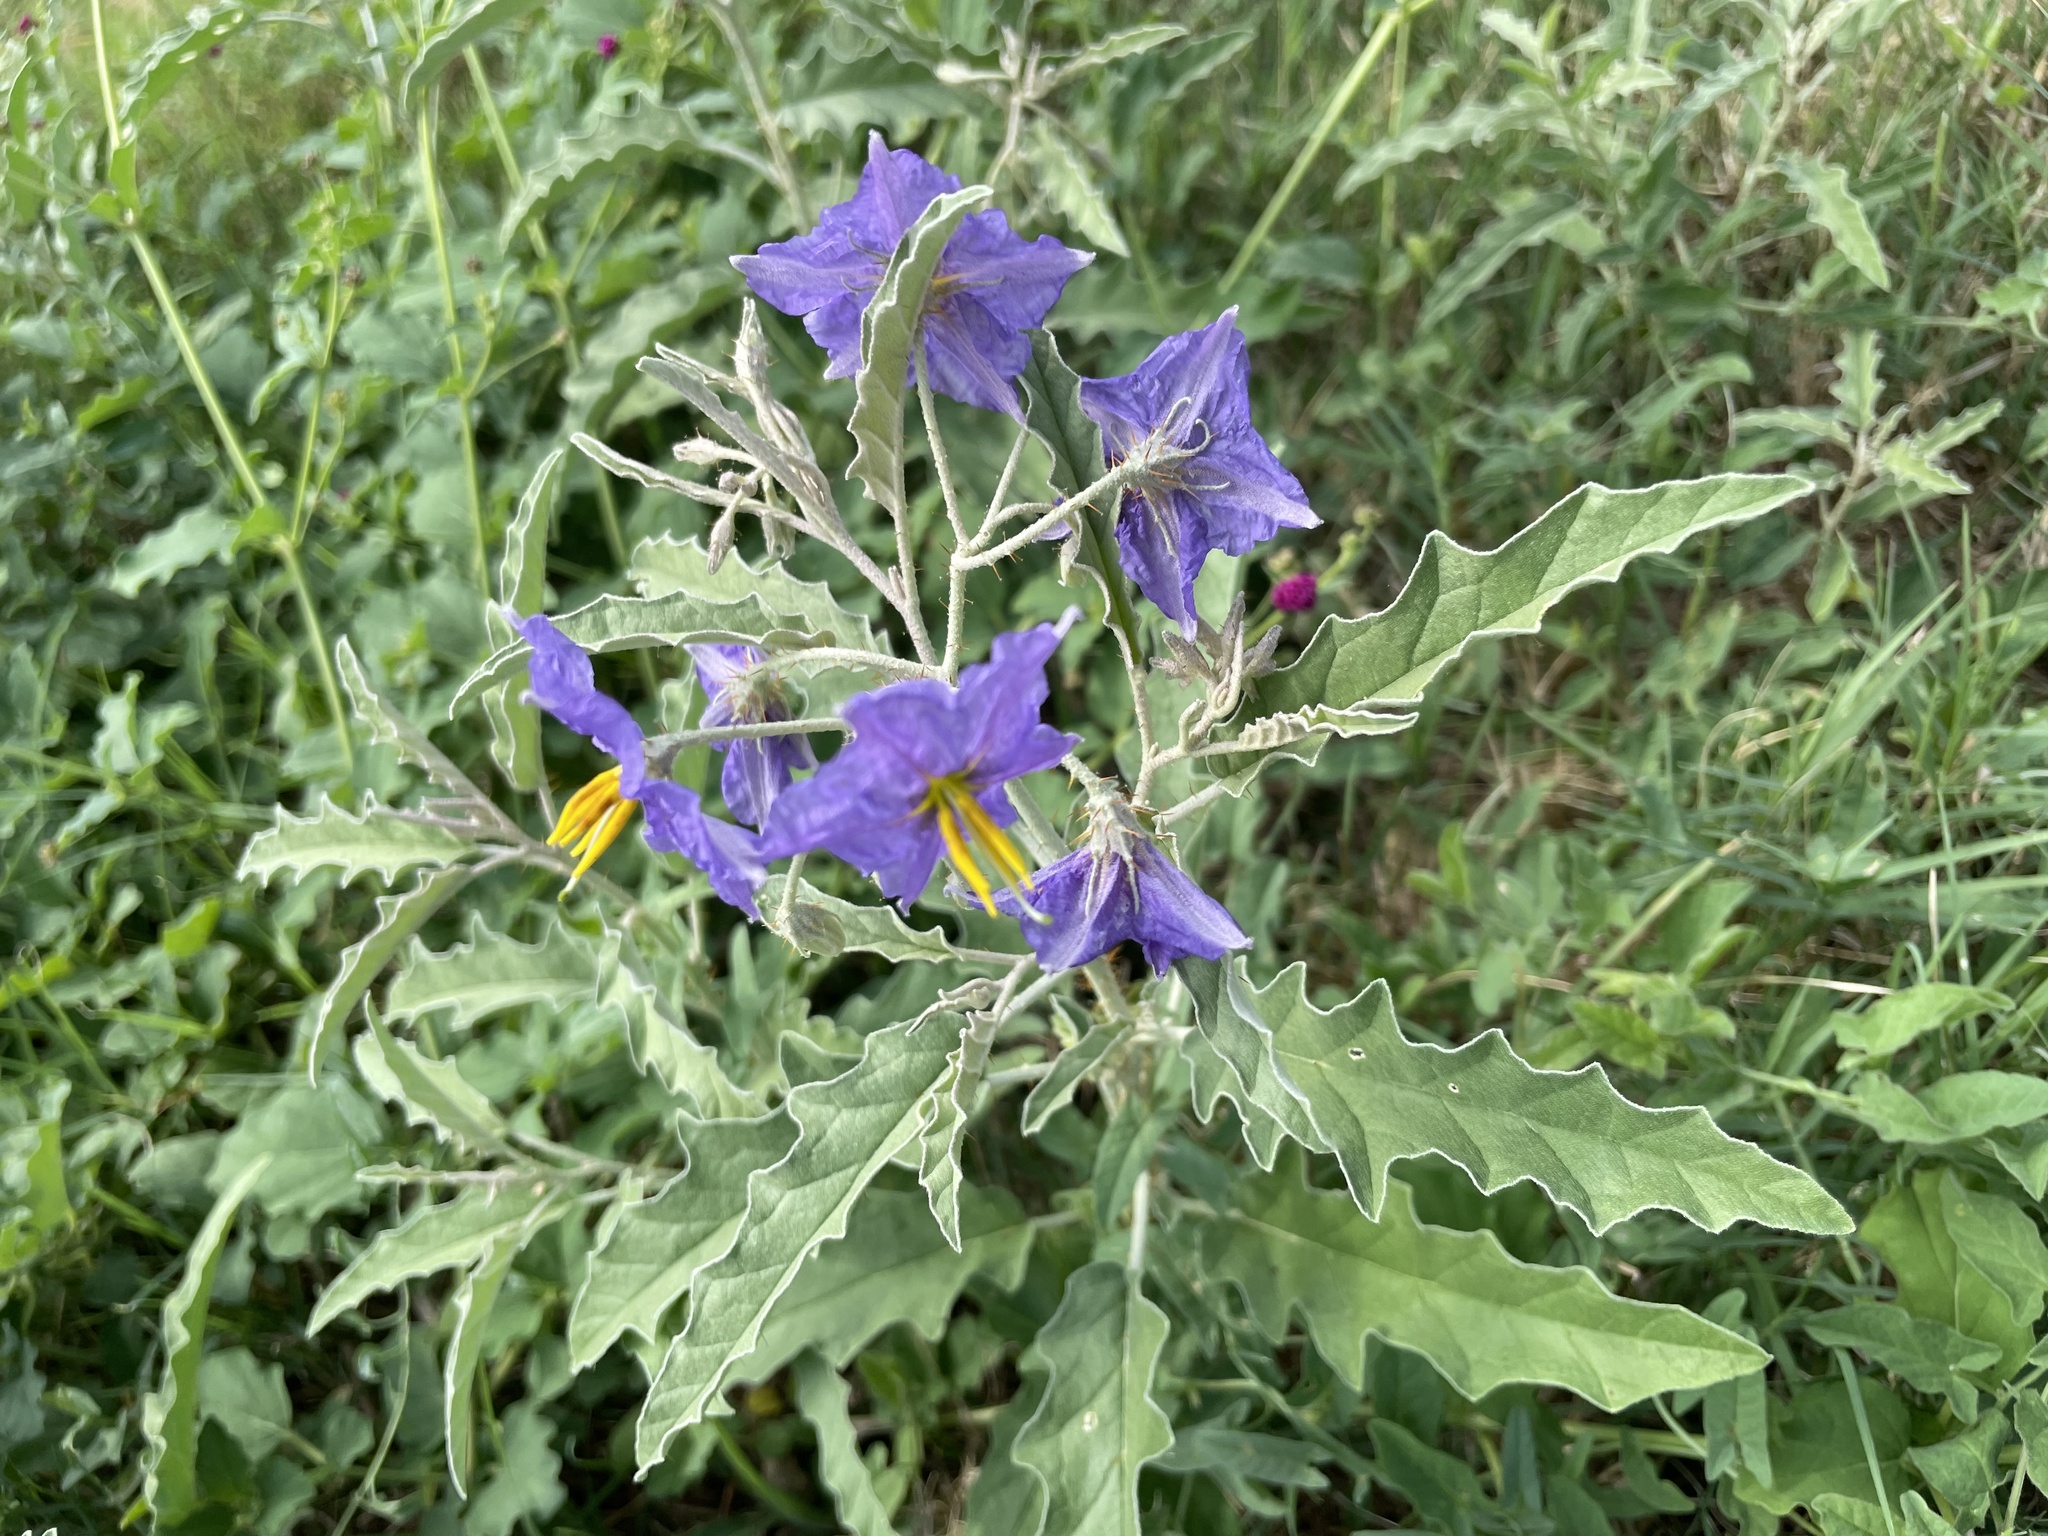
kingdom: Plantae
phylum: Tracheophyta
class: Magnoliopsida
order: Solanales
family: Solanaceae
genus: Solanum
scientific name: Solanum elaeagnifolium
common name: Silverleaf nightshade
